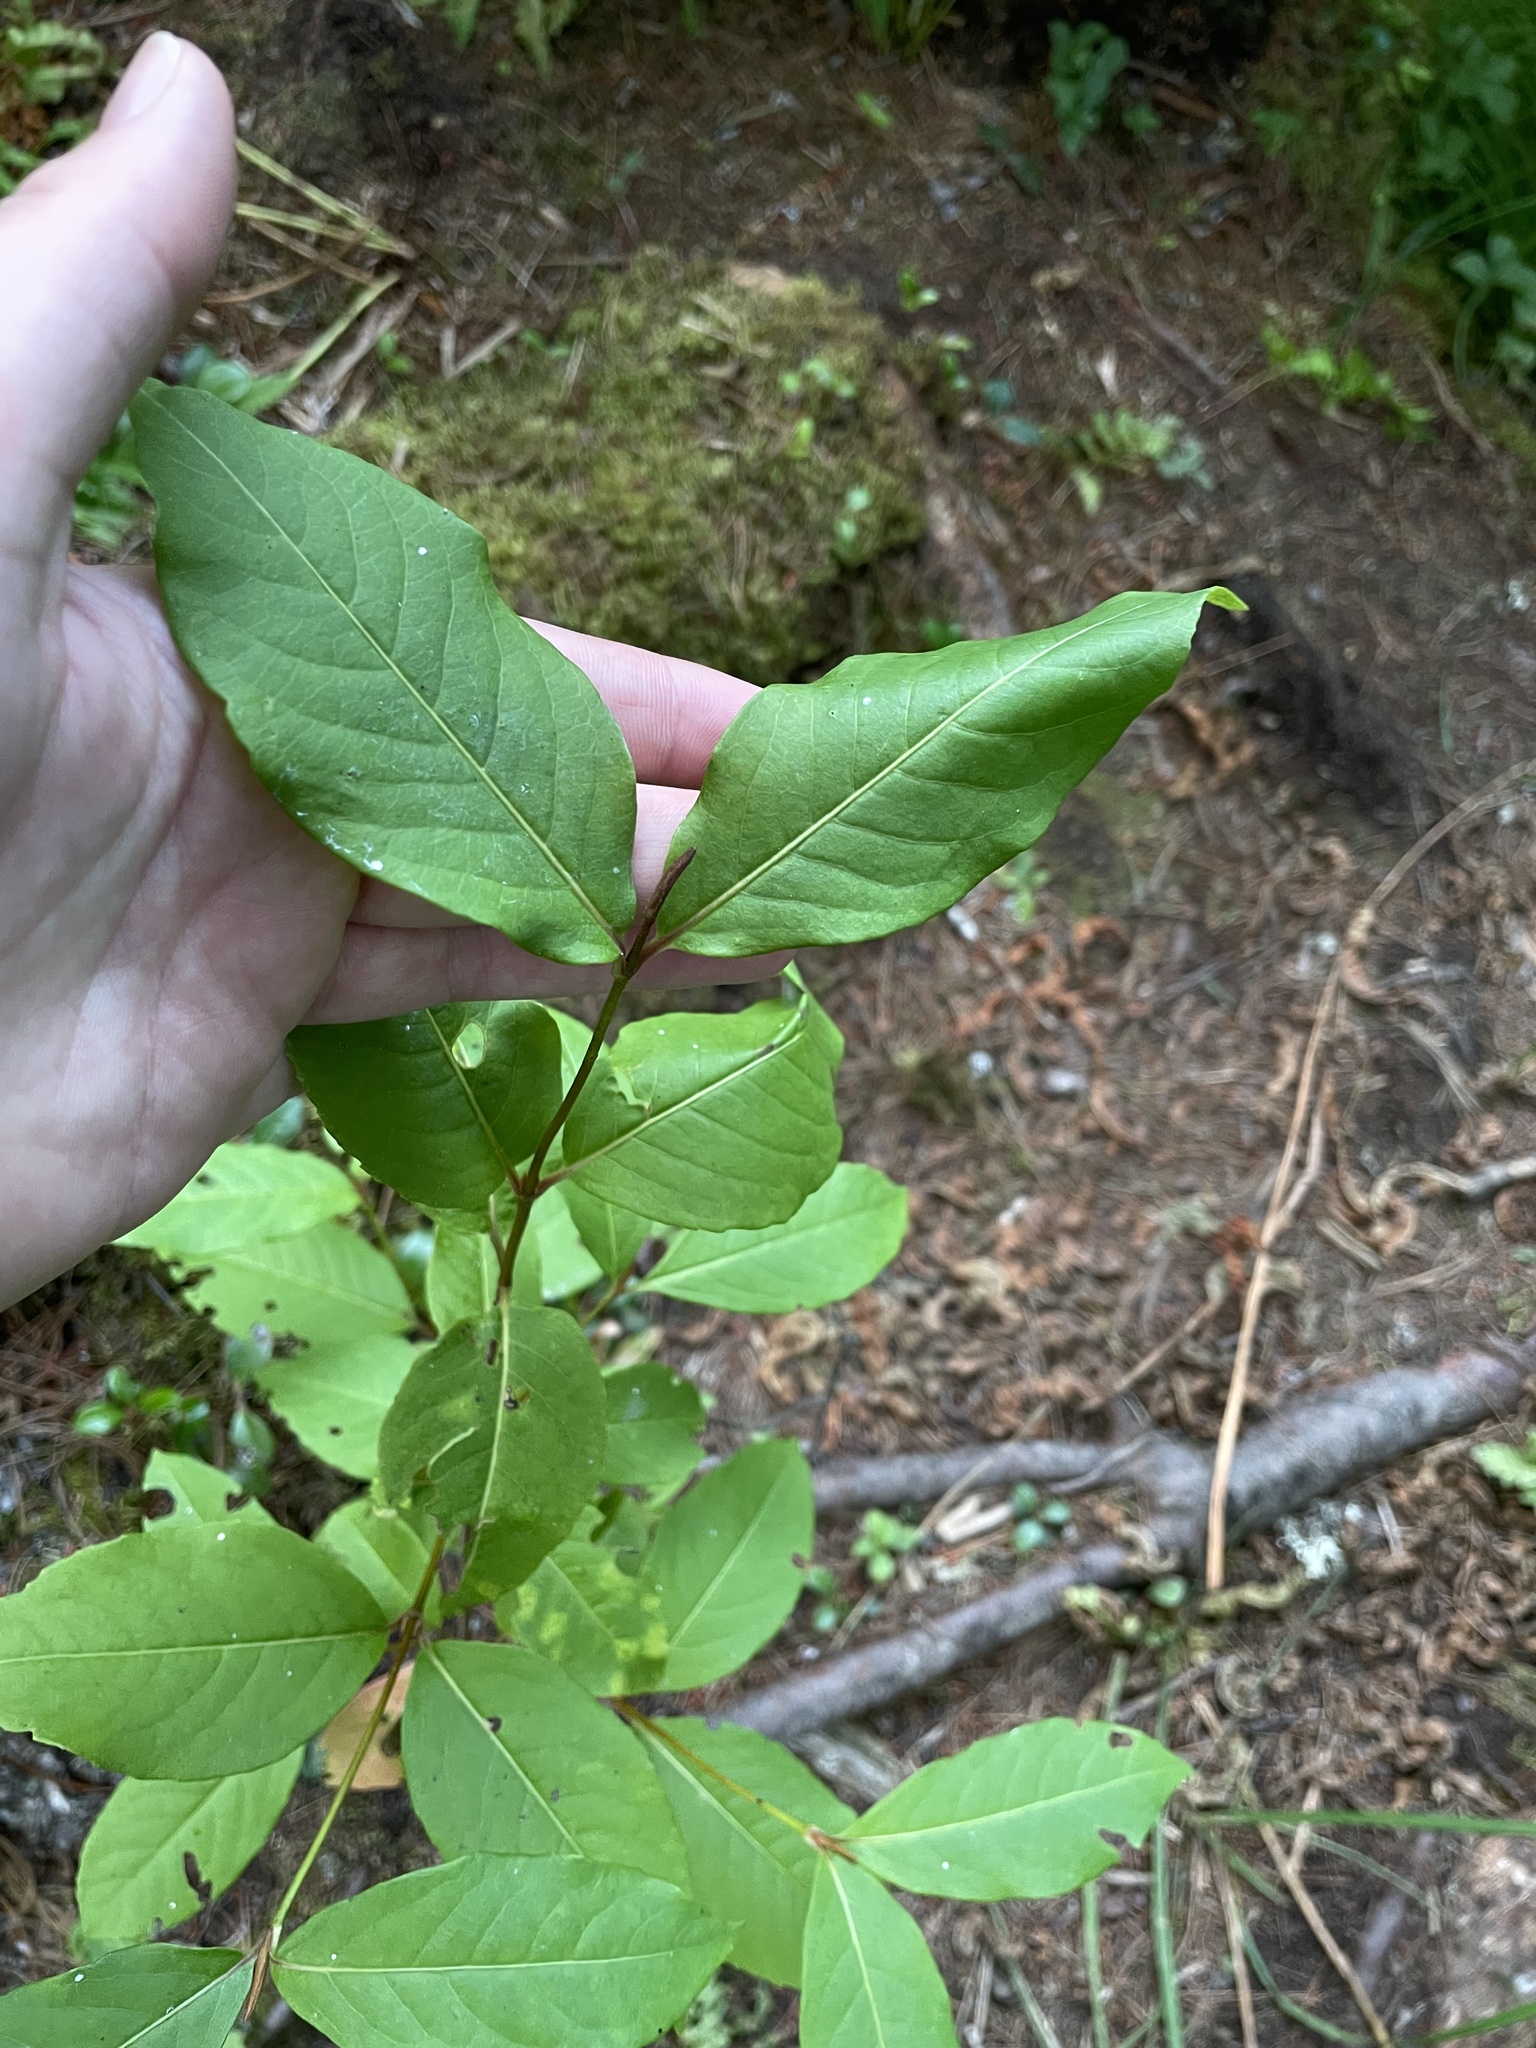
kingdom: Plantae
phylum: Tracheophyta
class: Magnoliopsida
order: Dipsacales
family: Viburnaceae
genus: Viburnum
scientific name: Viburnum cassinoides
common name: Swamp haw
